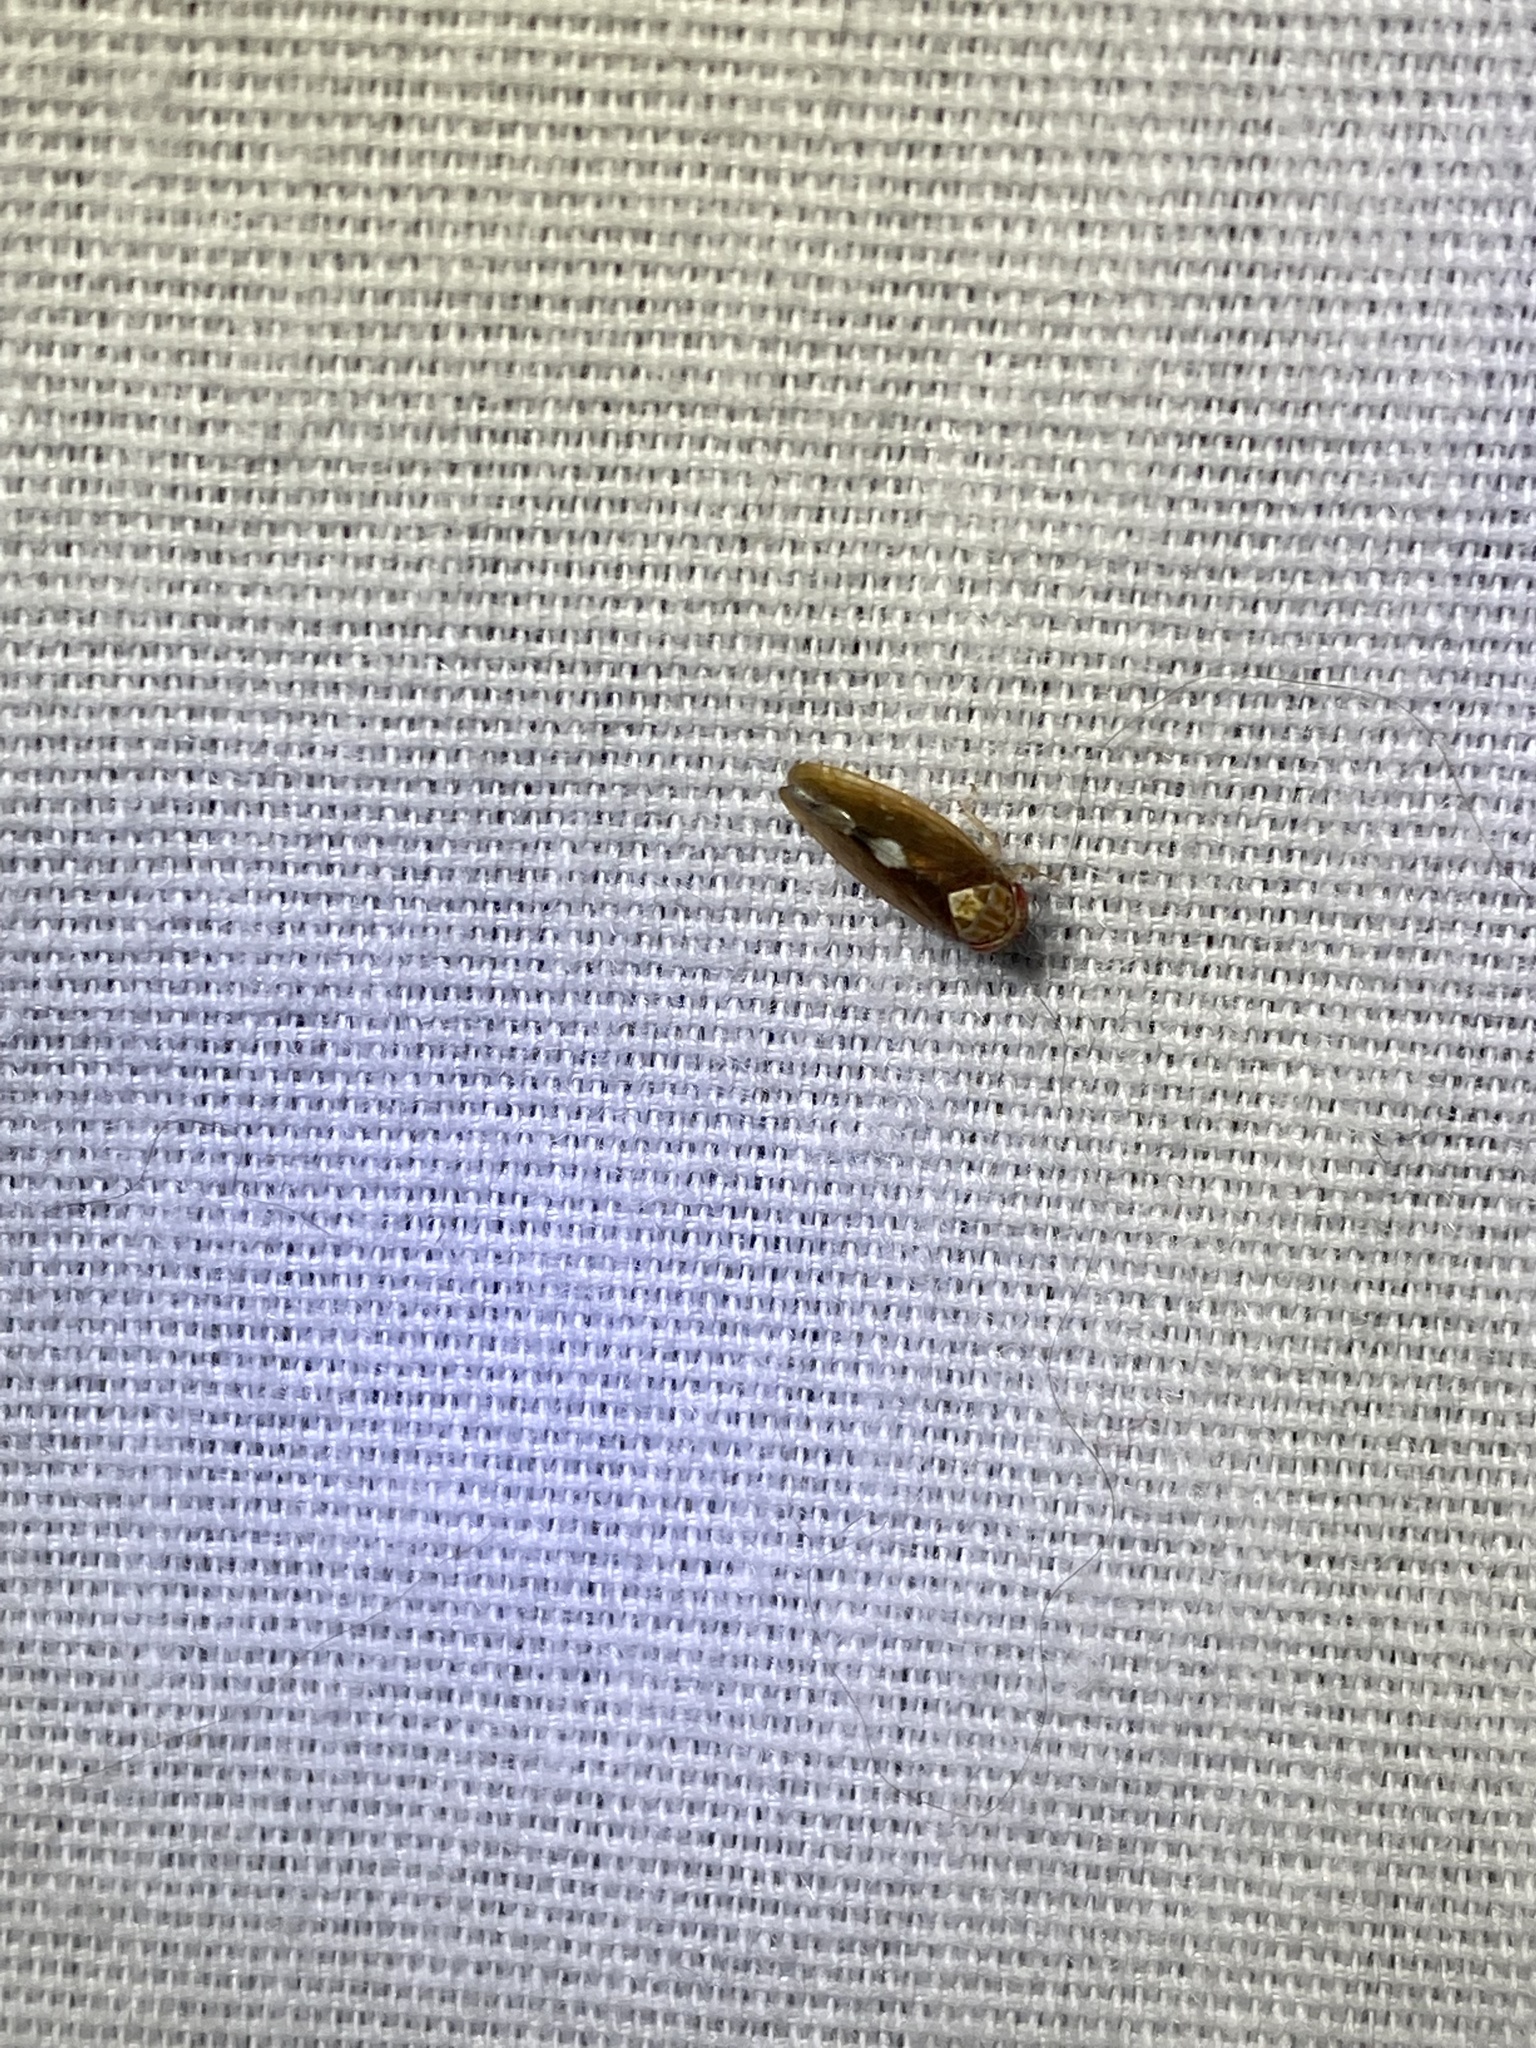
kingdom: Animalia
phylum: Arthropoda
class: Insecta
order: Hemiptera
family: Cicadellidae
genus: Eutettix
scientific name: Eutettix luridus
